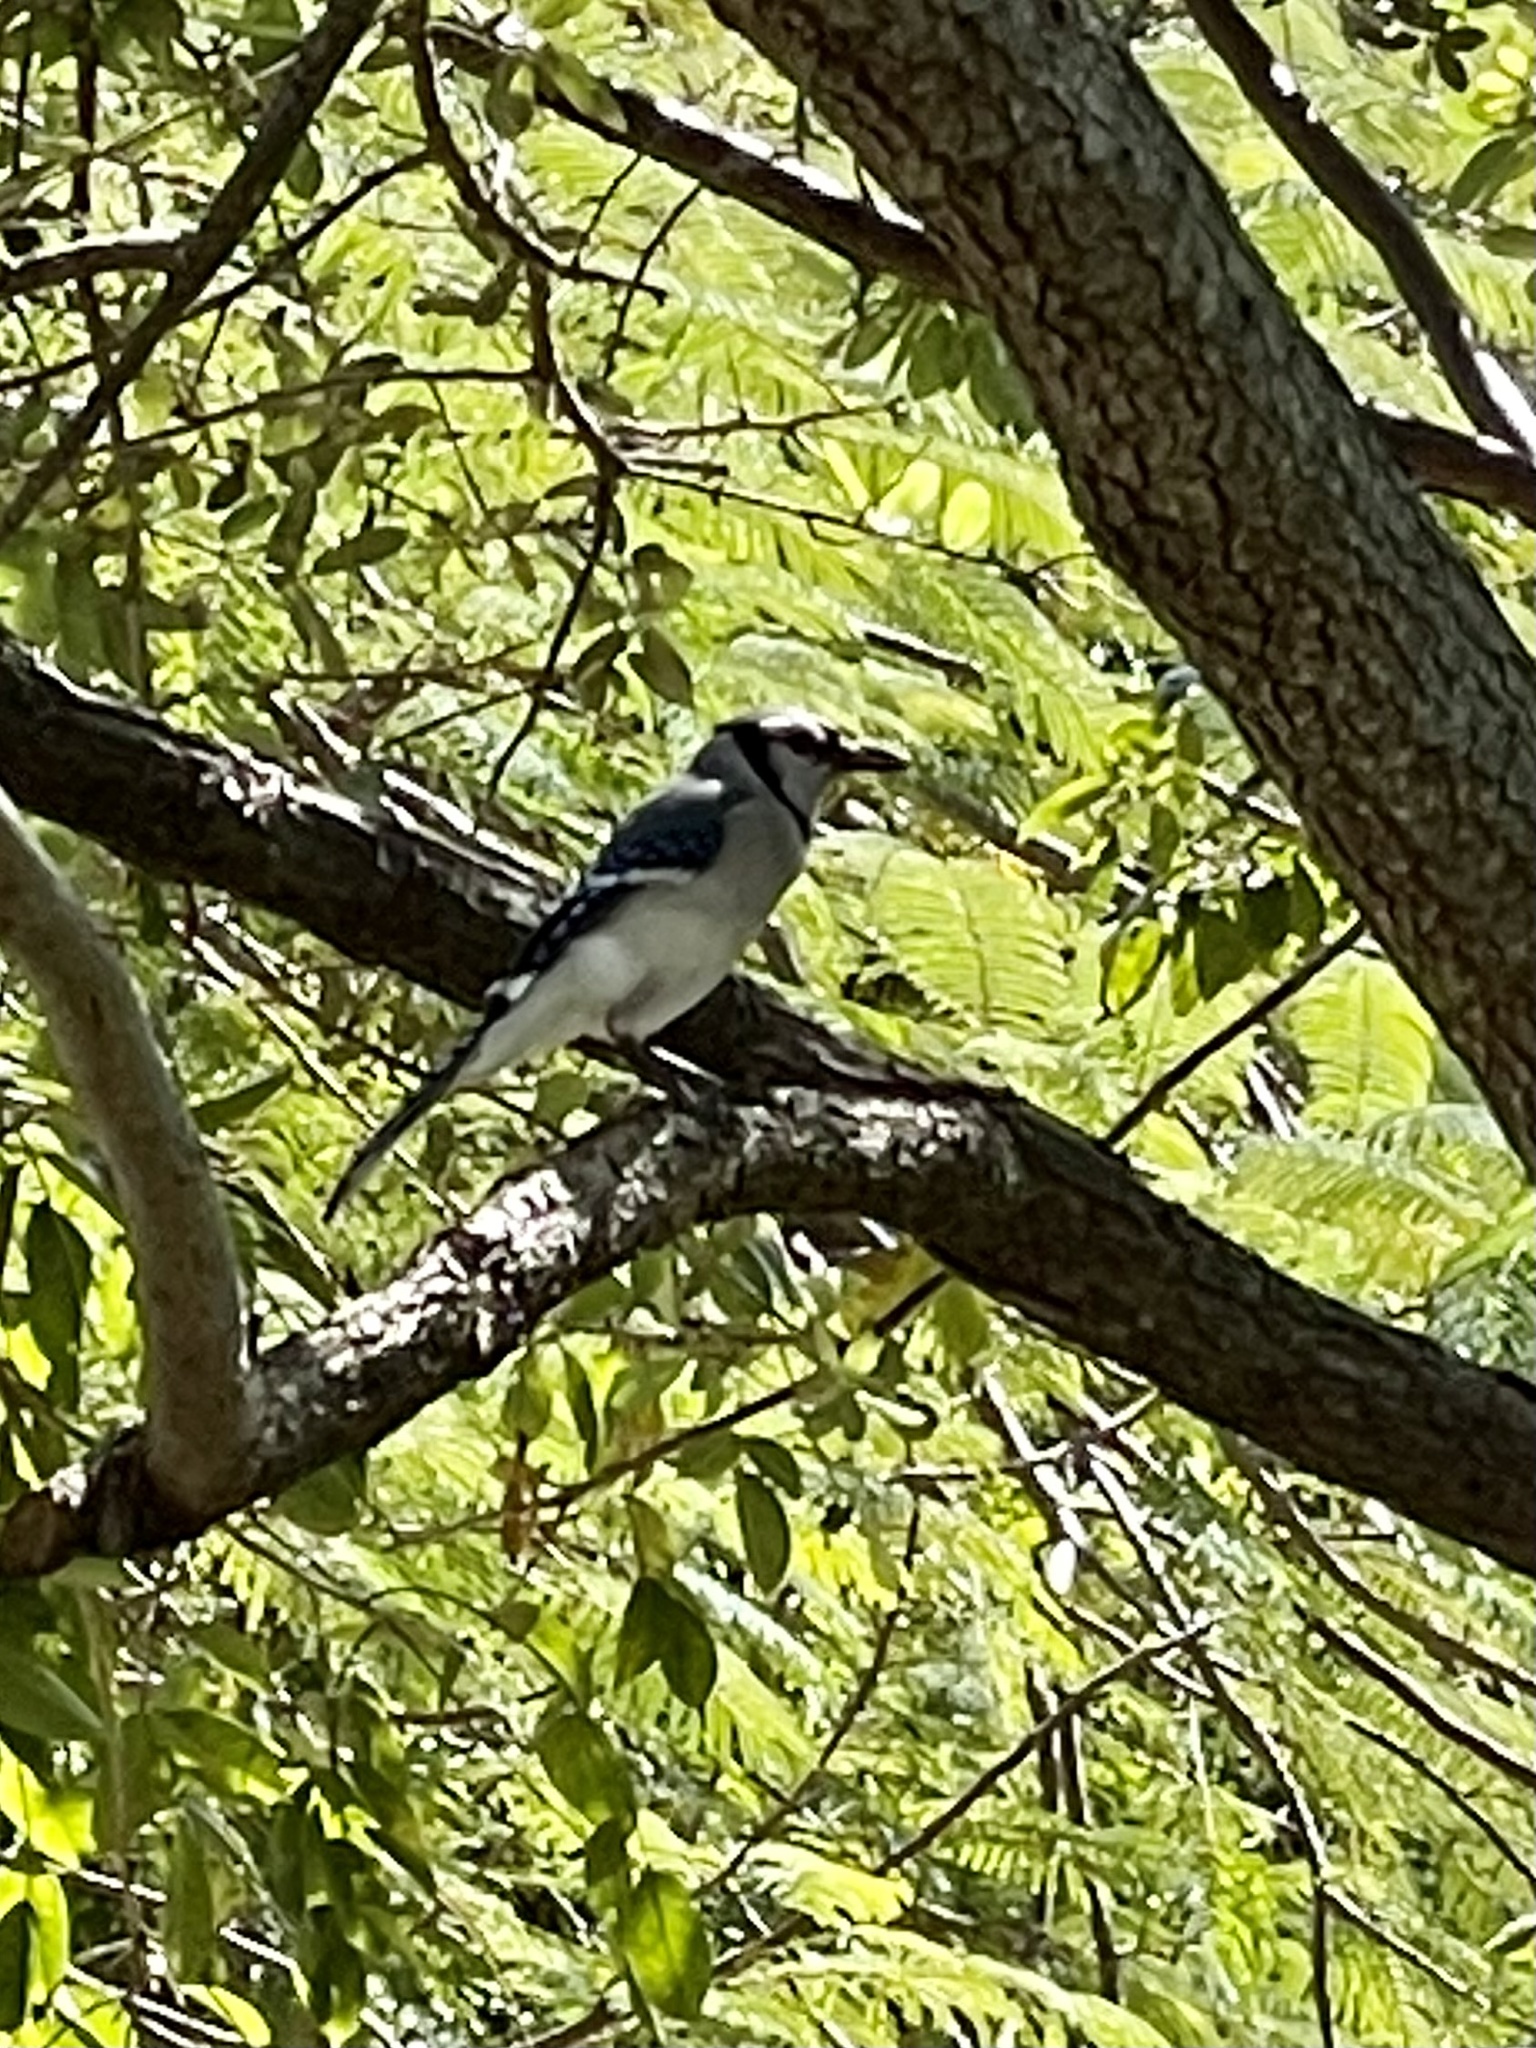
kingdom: Animalia
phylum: Chordata
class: Aves
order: Passeriformes
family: Corvidae
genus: Cyanocitta
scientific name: Cyanocitta cristata
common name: Blue jay
